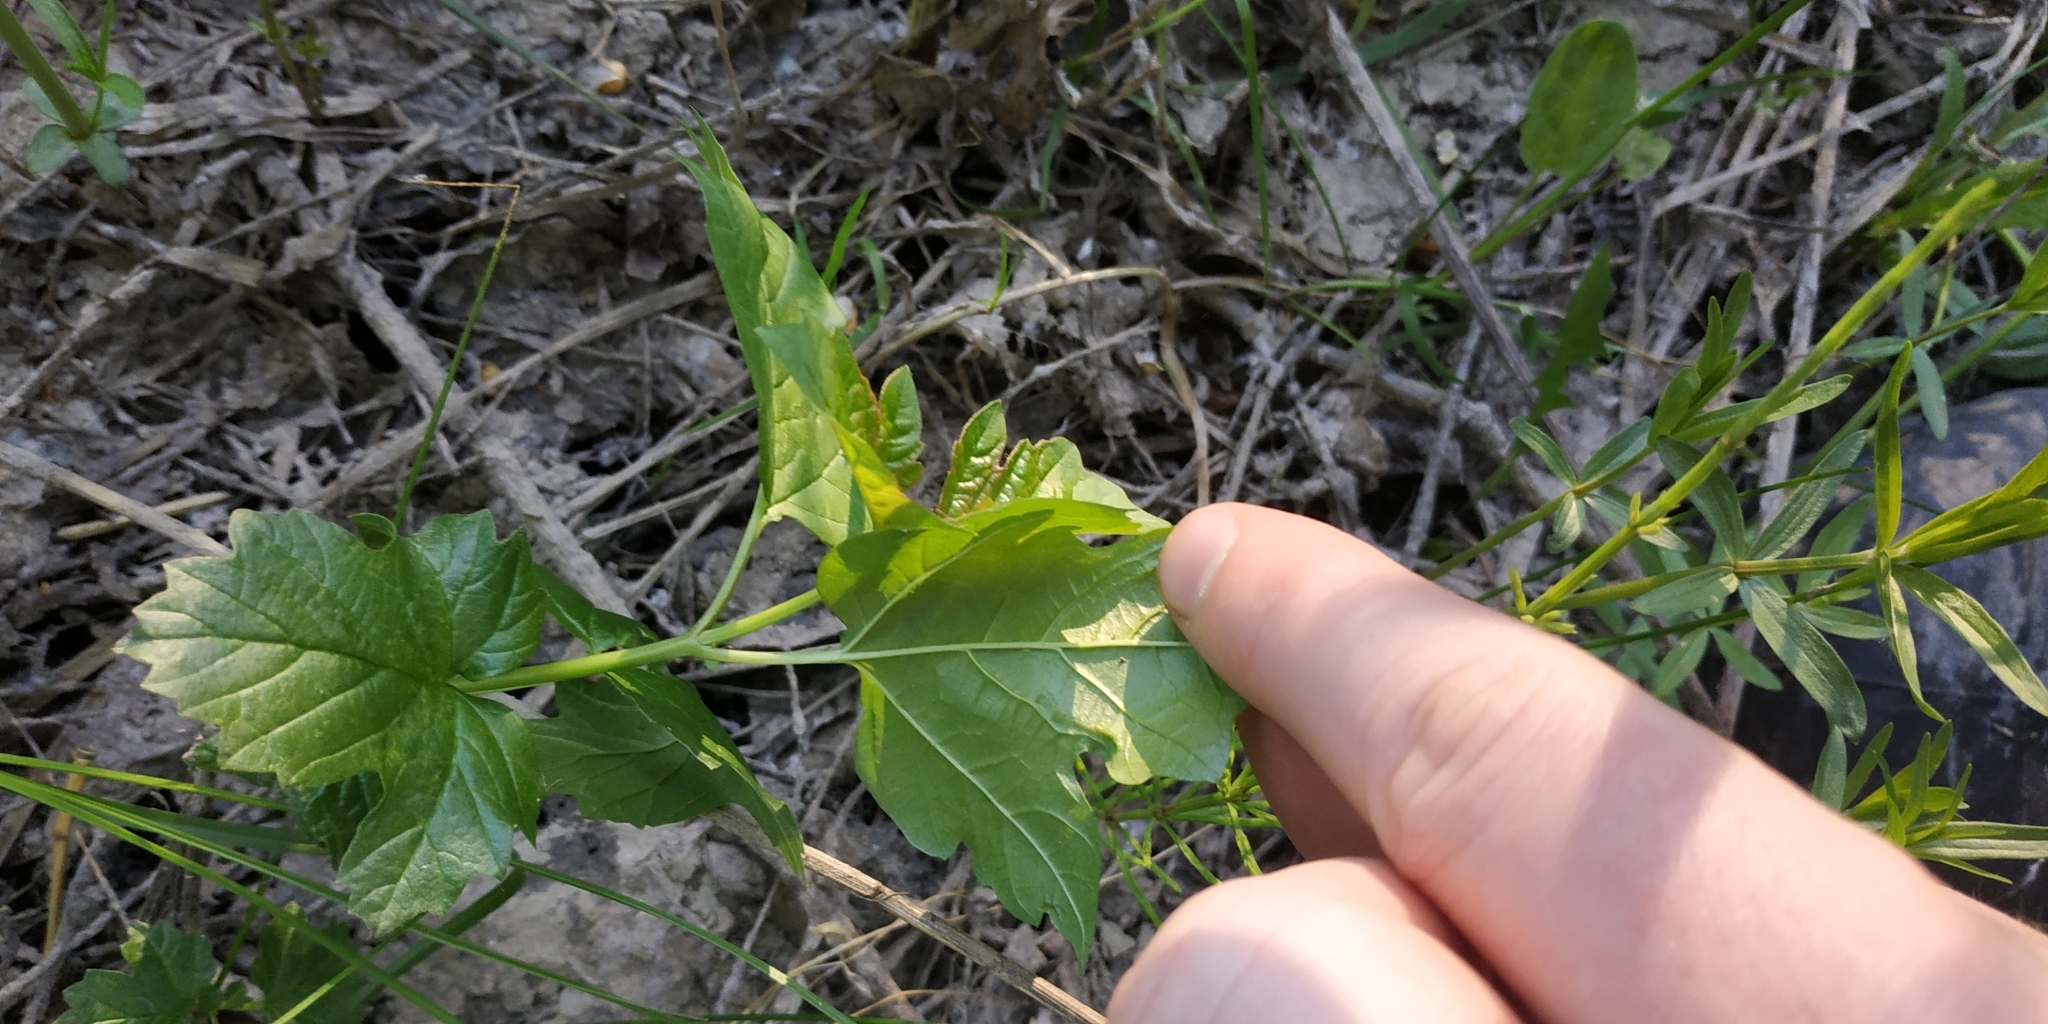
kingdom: Plantae
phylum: Tracheophyta
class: Magnoliopsida
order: Dipsacales
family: Viburnaceae
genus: Viburnum
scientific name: Viburnum opulus
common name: Guelder-rose
